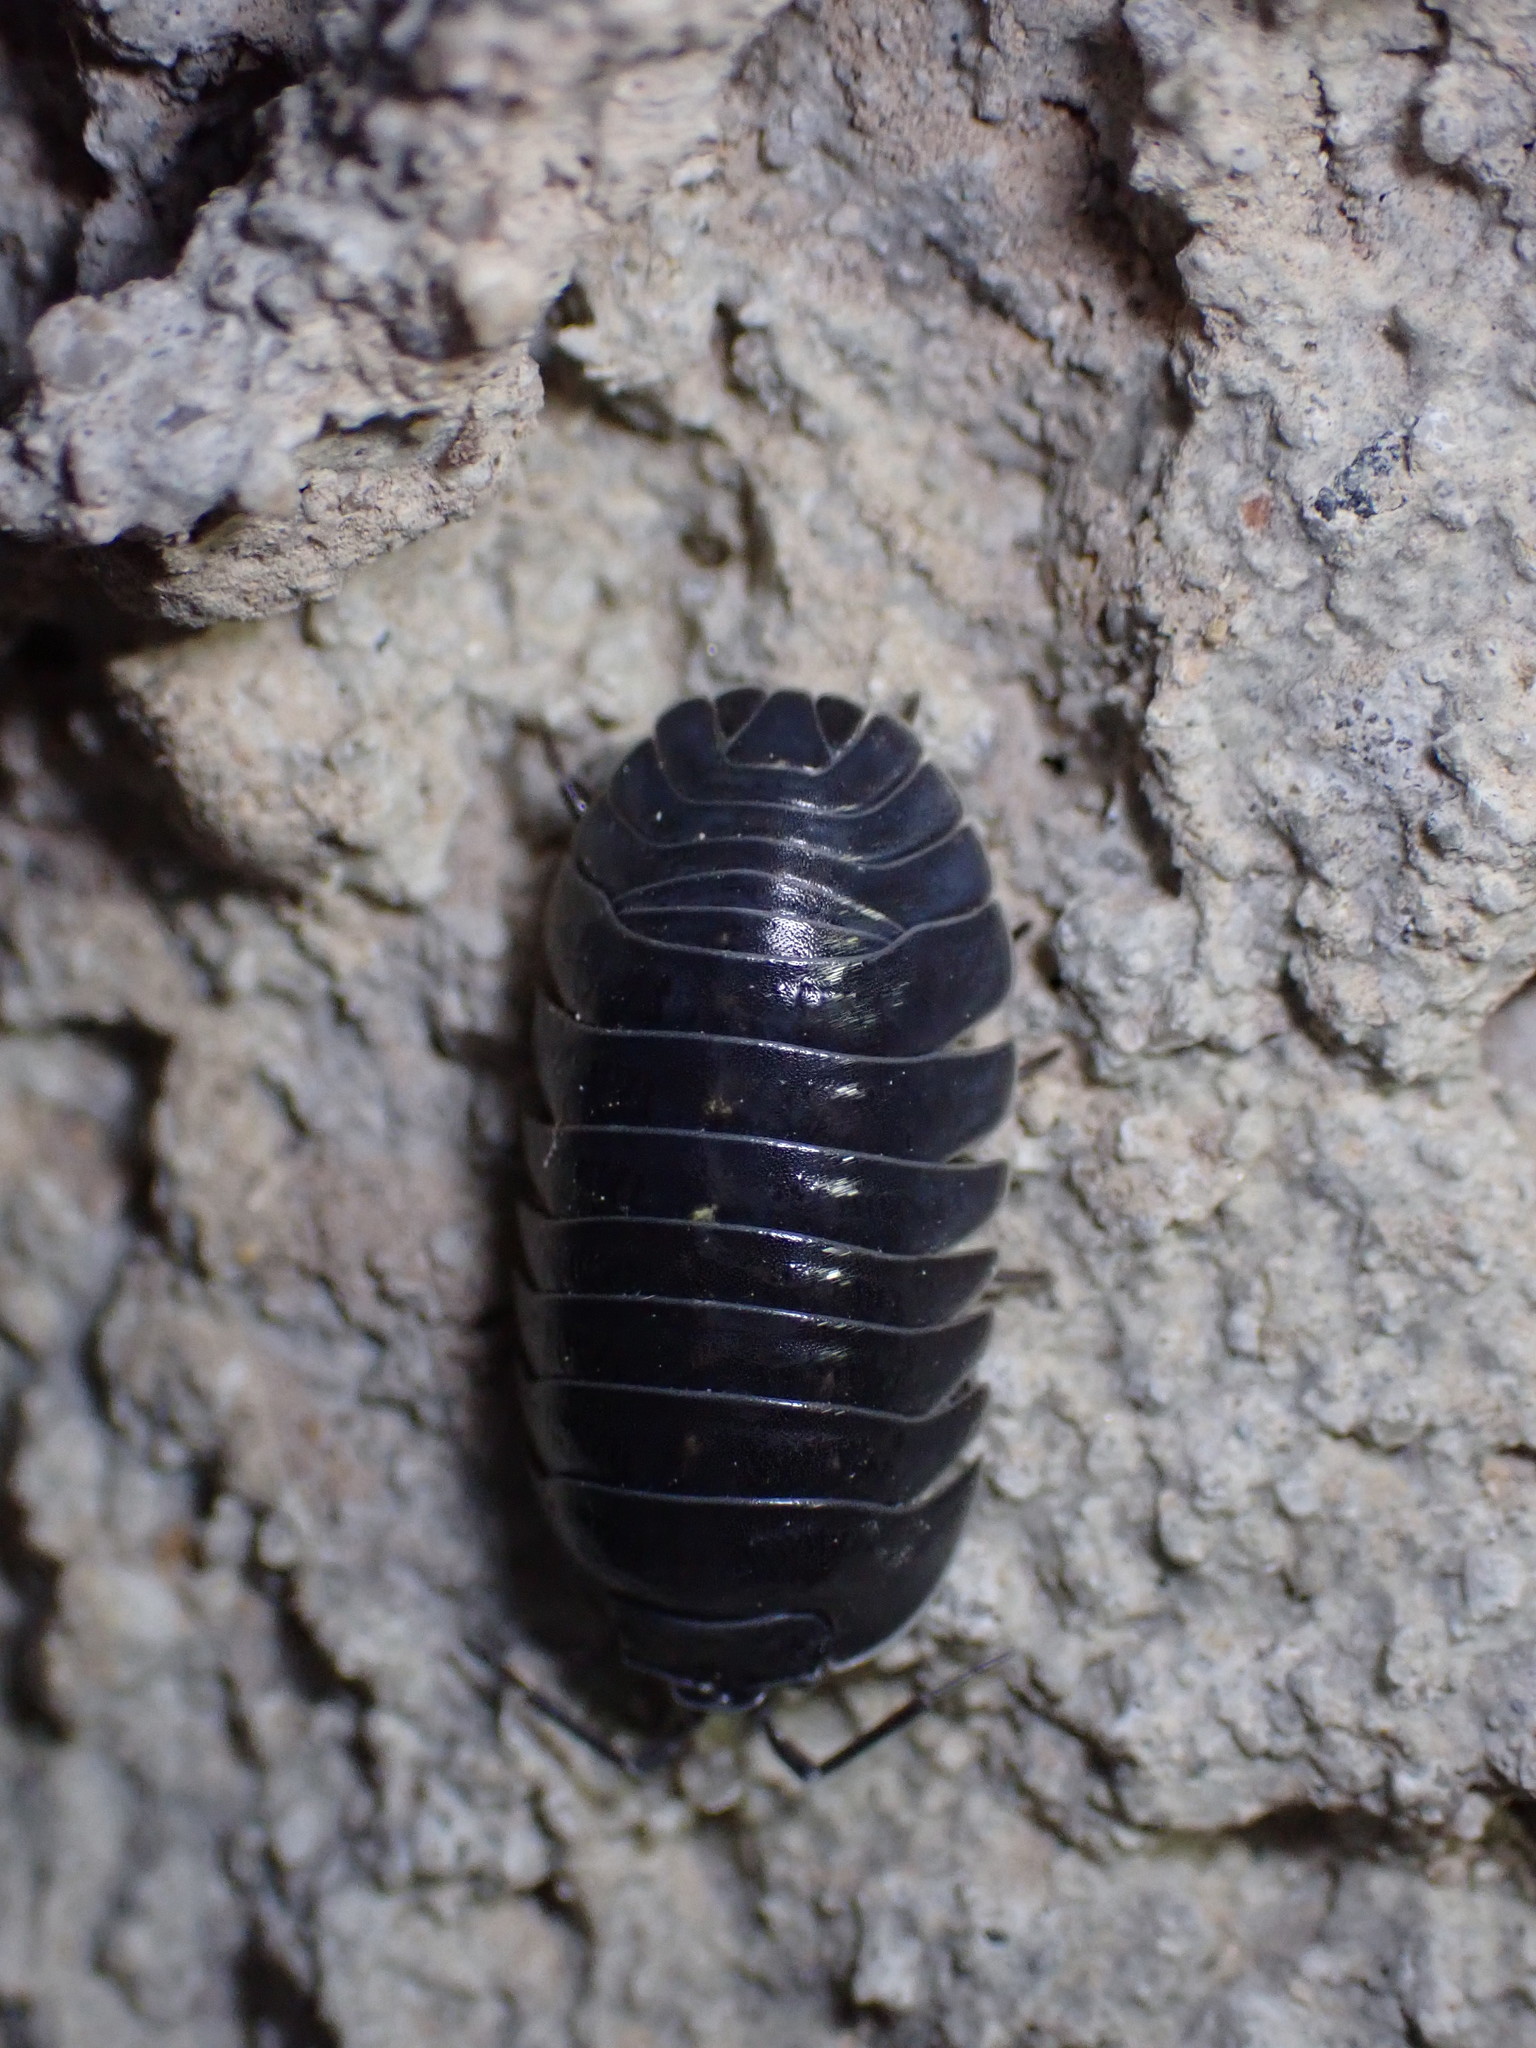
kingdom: Animalia
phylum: Arthropoda
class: Malacostraca
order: Isopoda
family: Armadillidiidae
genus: Armadillidium
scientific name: Armadillidium depressum
